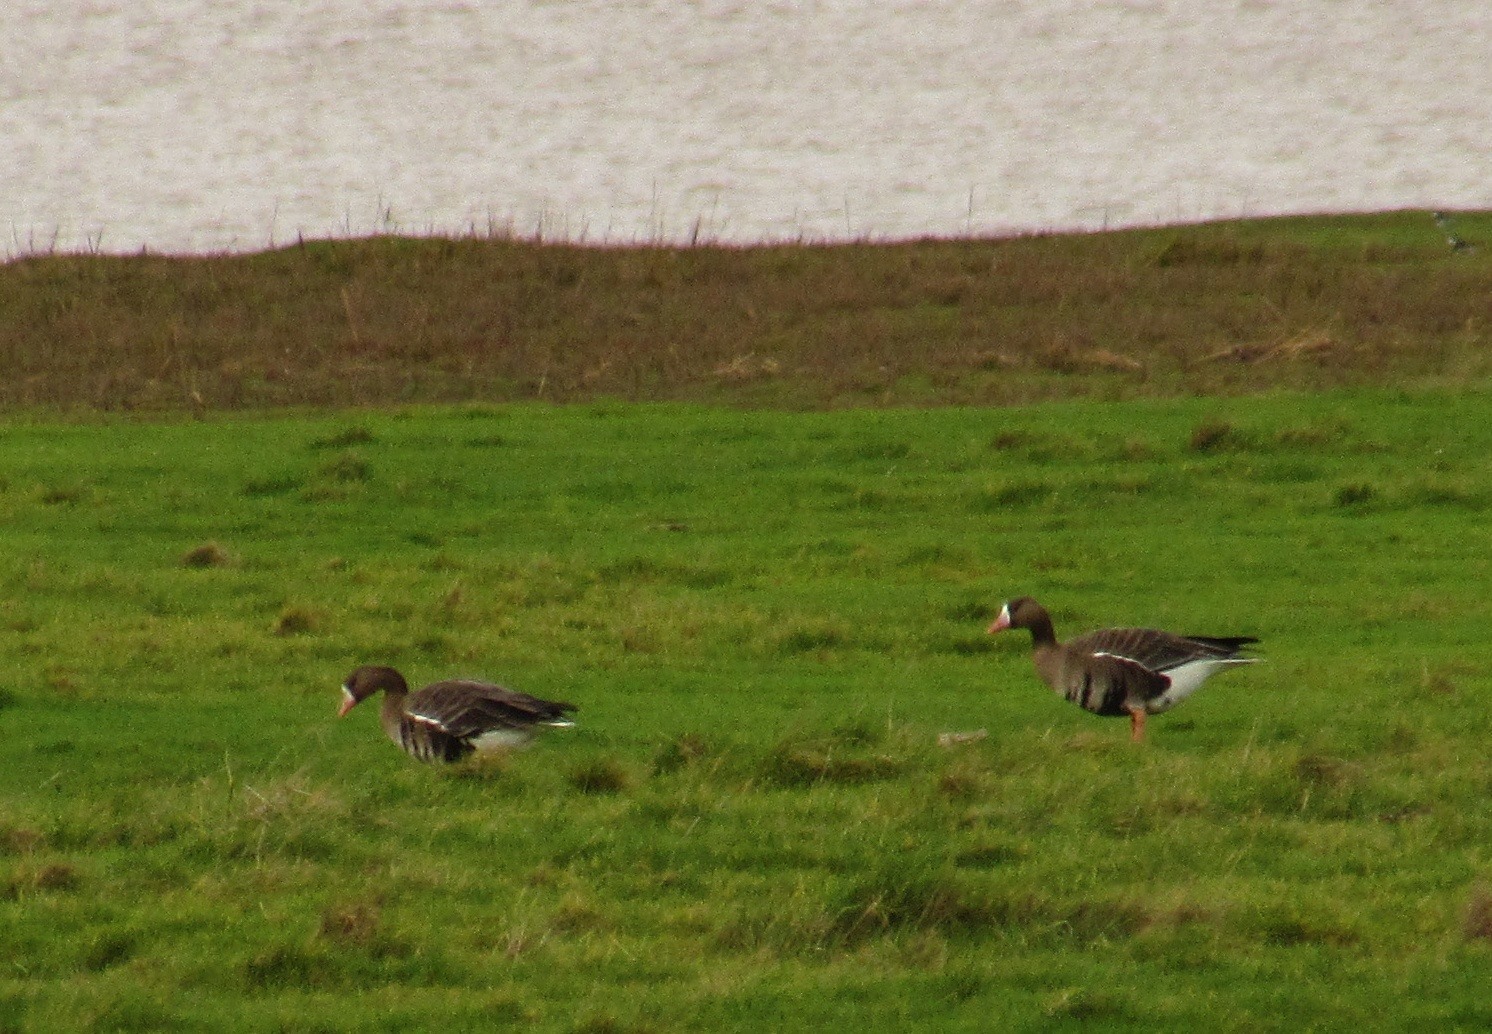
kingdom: Animalia
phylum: Chordata
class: Aves
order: Anseriformes
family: Anatidae
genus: Anser
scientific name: Anser albifrons
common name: Greater white-fronted goose
